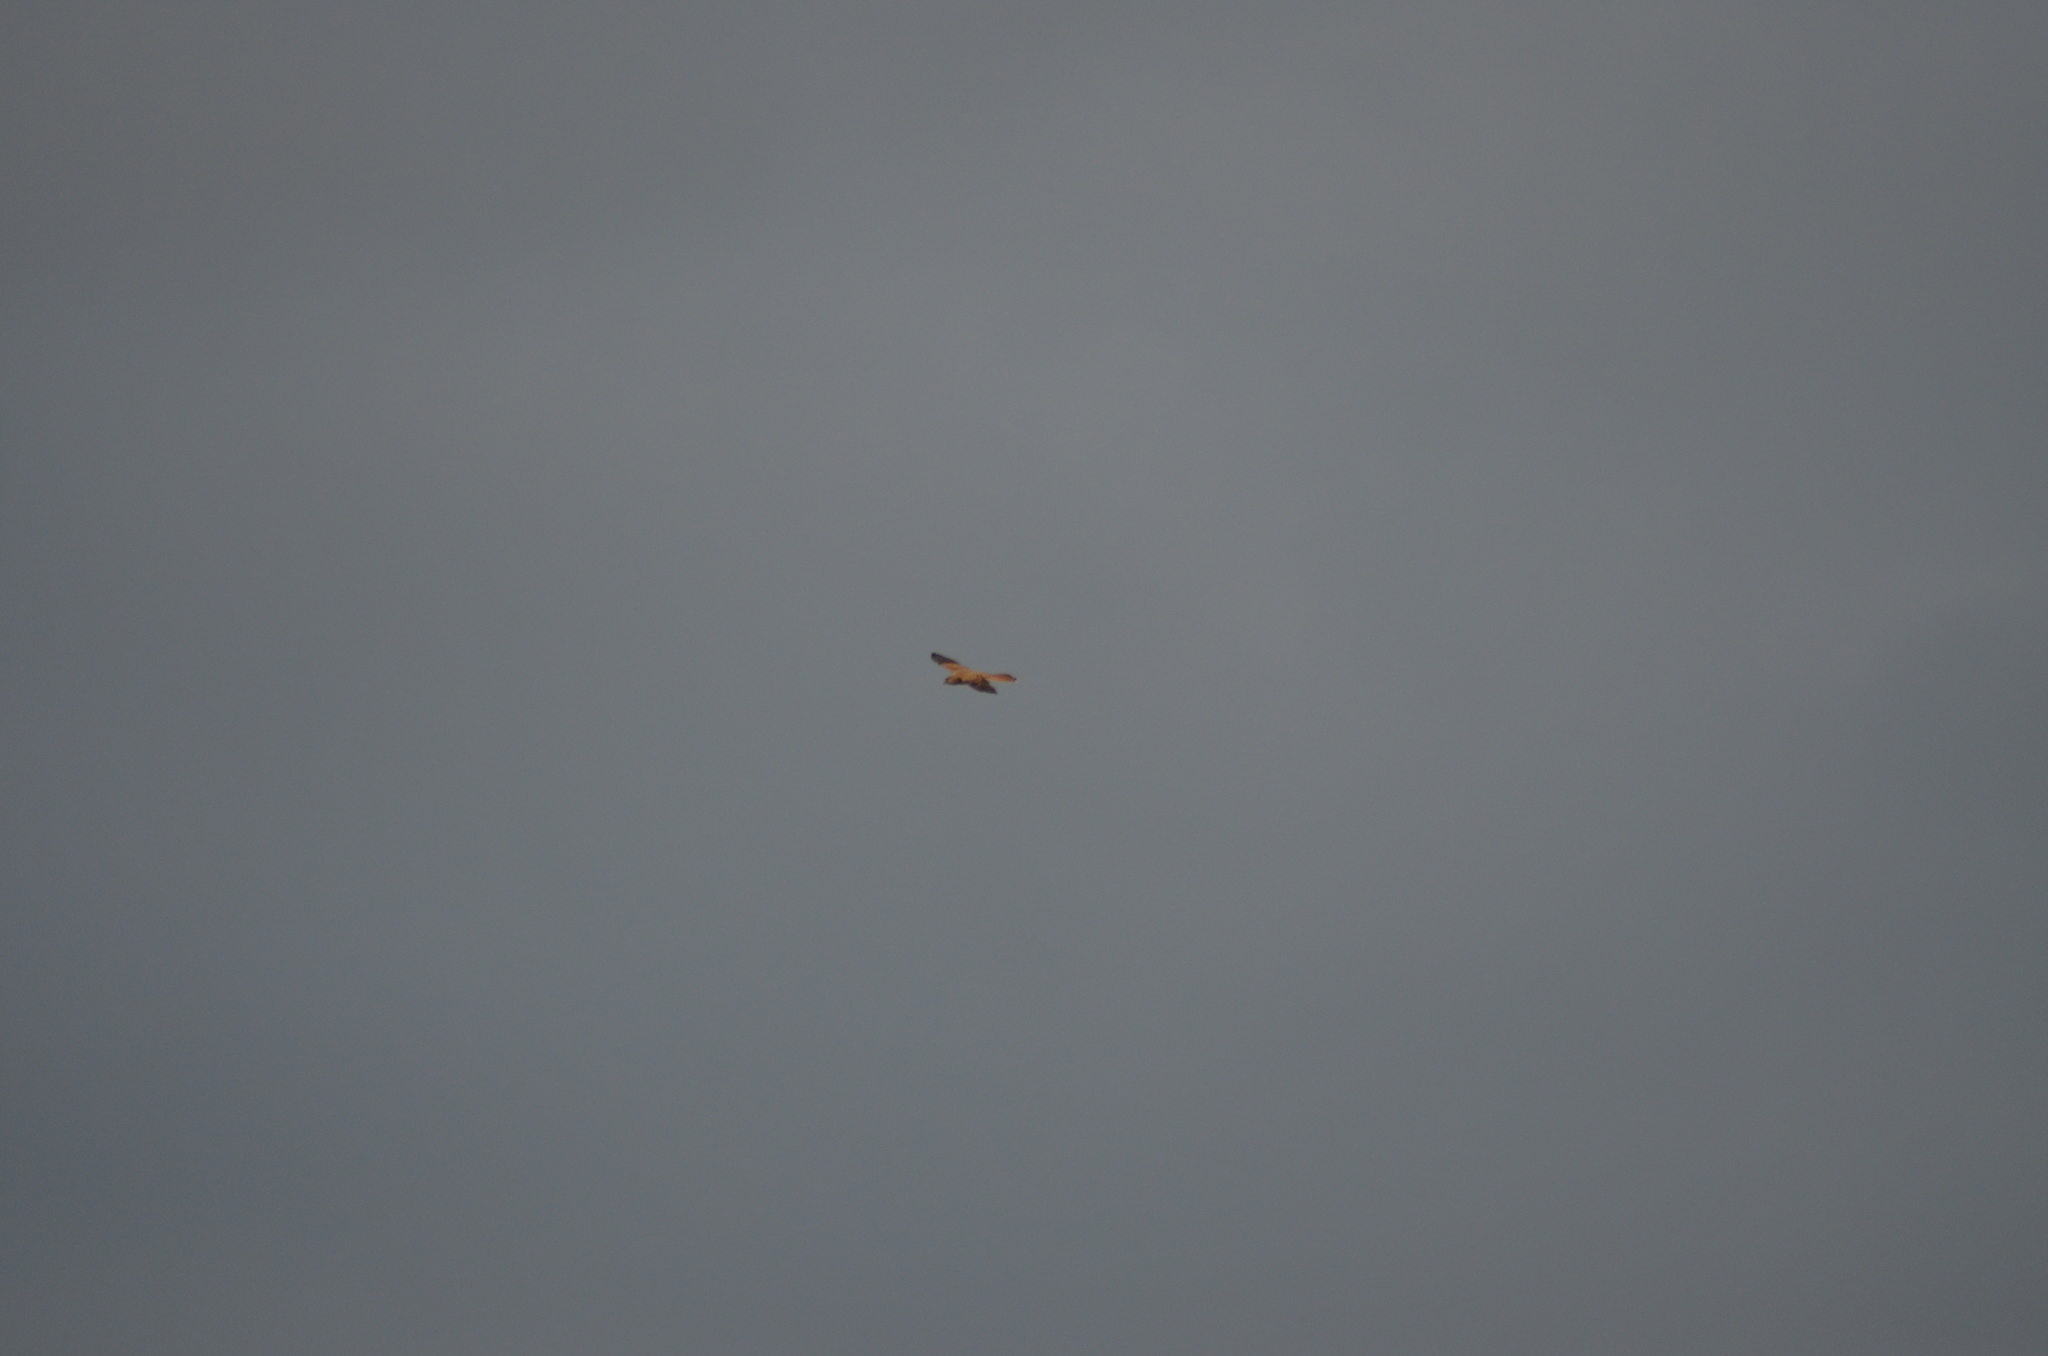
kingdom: Animalia
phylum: Chordata
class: Aves
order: Falconiformes
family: Falconidae
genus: Falco
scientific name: Falco tinnunculus
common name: Common kestrel
